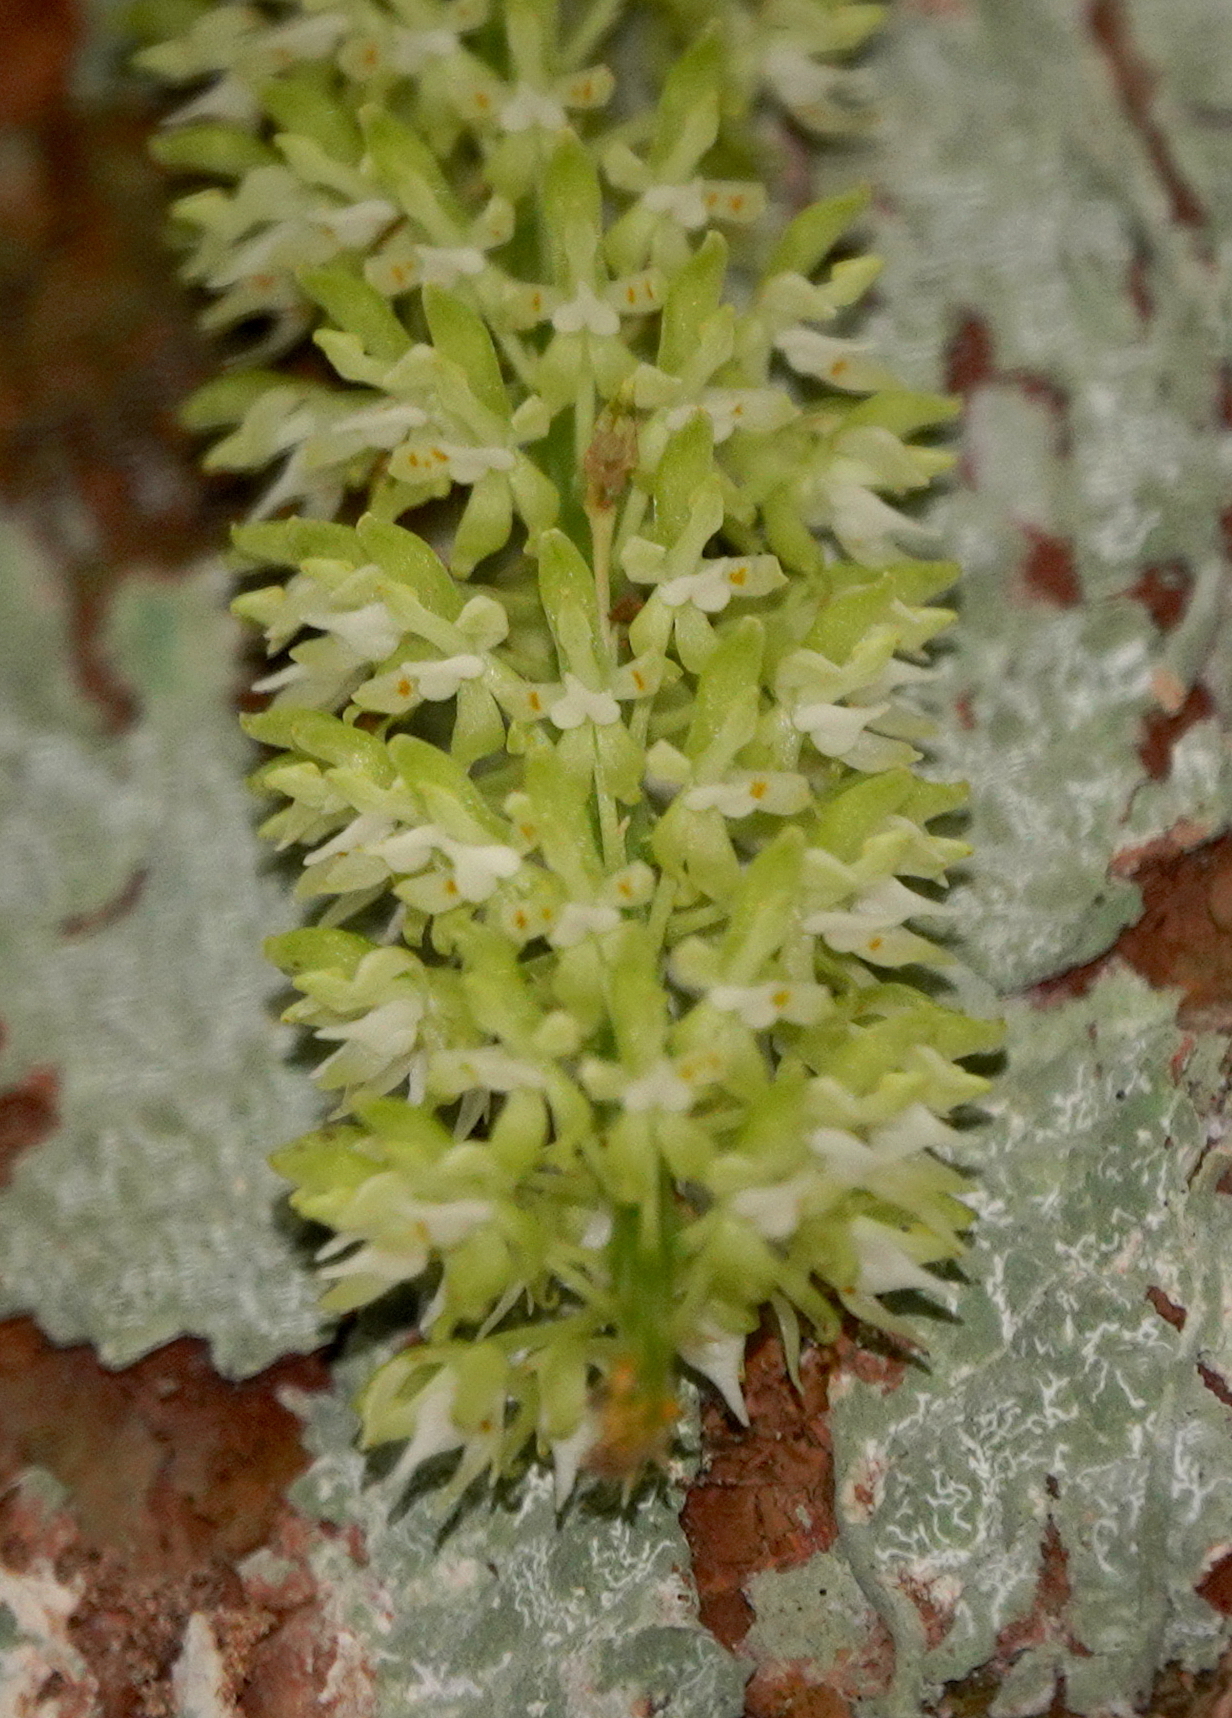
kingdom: Plantae
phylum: Tracheophyta
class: Liliopsida
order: Asparagales
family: Orchidaceae
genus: Notylia
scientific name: Notylia barkeri
